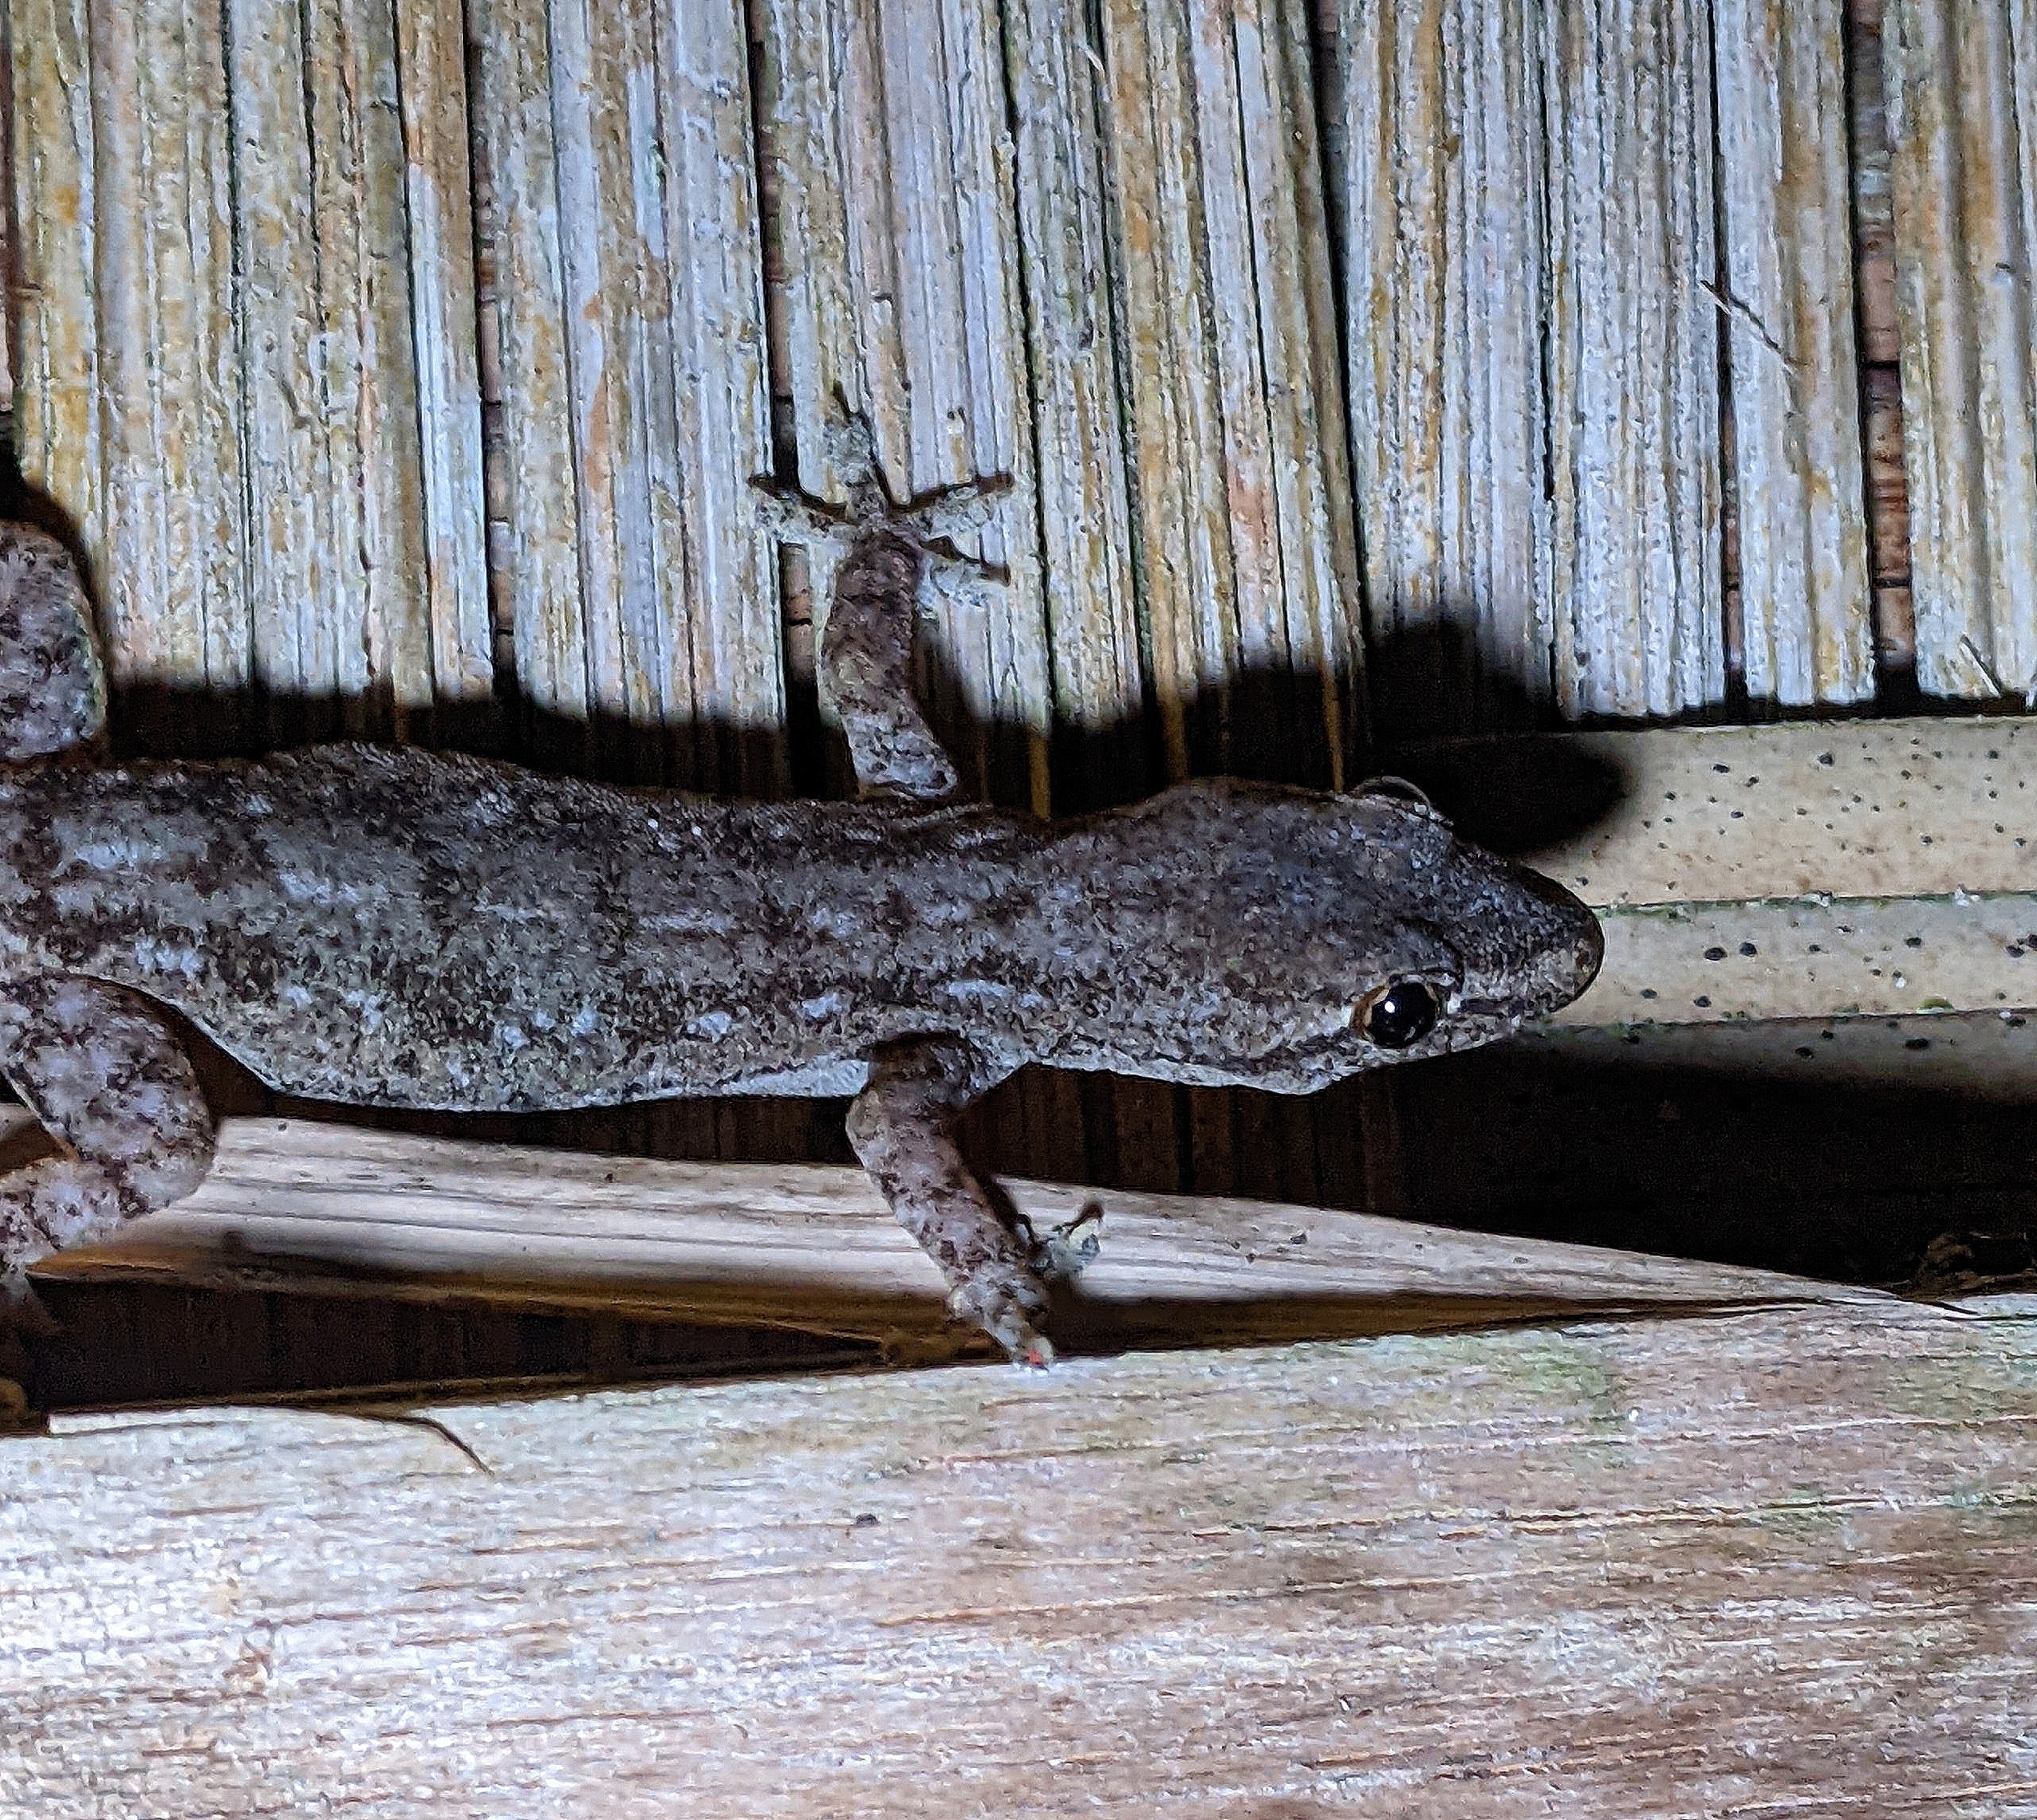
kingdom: Animalia
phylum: Chordata
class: Squamata
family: Gekkonidae
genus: Hemidactylus
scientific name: Hemidactylus frenatus
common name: Common house gecko
